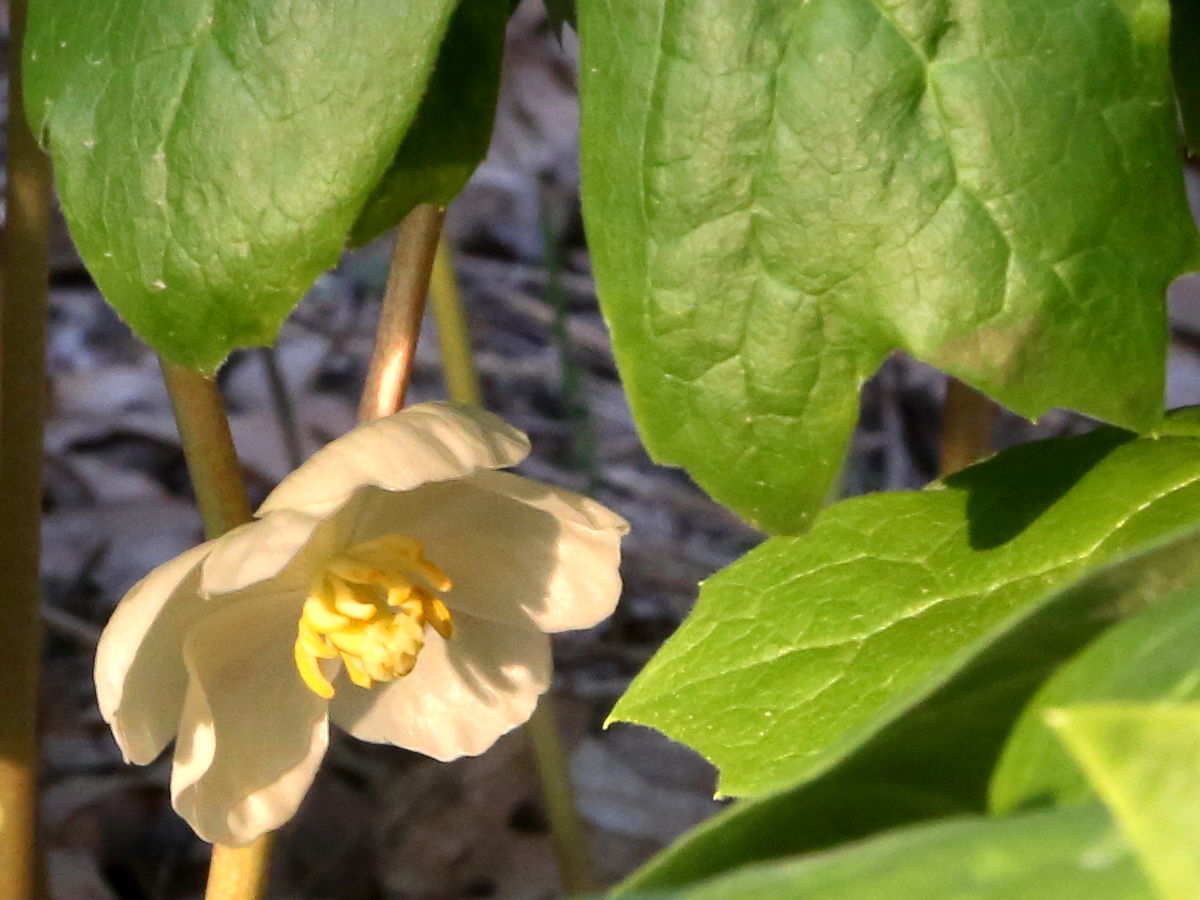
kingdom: Plantae
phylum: Tracheophyta
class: Magnoliopsida
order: Ranunculales
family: Berberidaceae
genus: Podophyllum
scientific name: Podophyllum peltatum
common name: Wild mandrake
